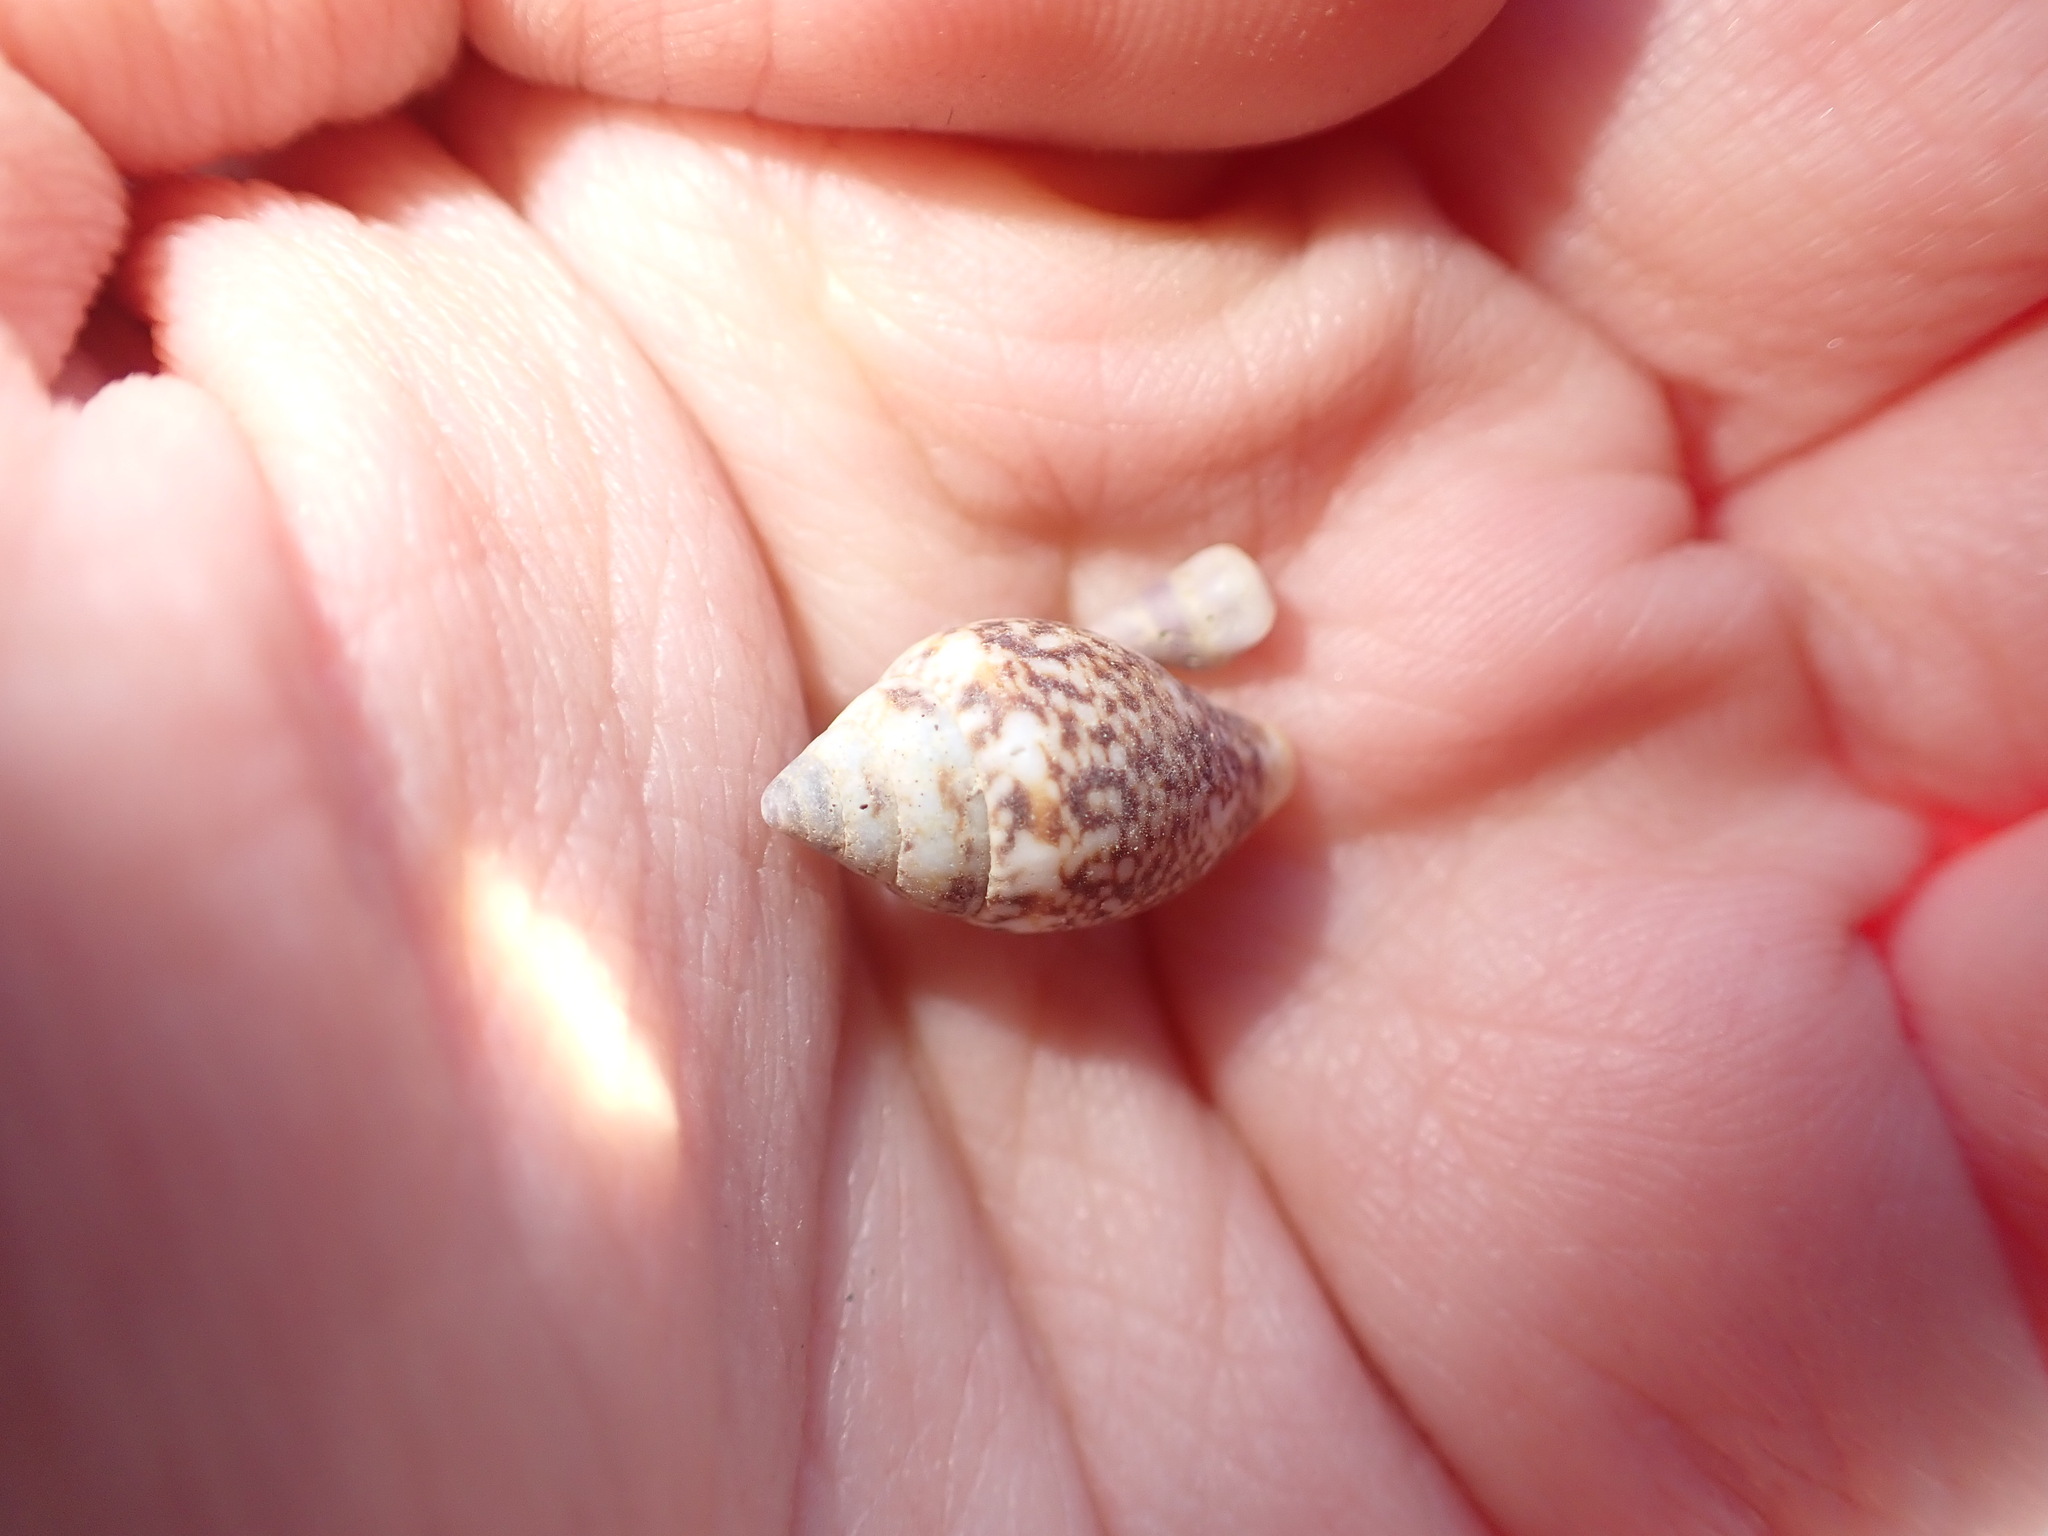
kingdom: Animalia
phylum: Mollusca
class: Gastropoda
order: Neogastropoda
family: Columbellidae
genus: Columbella
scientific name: Columbella rustica
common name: Rustic dove shell
